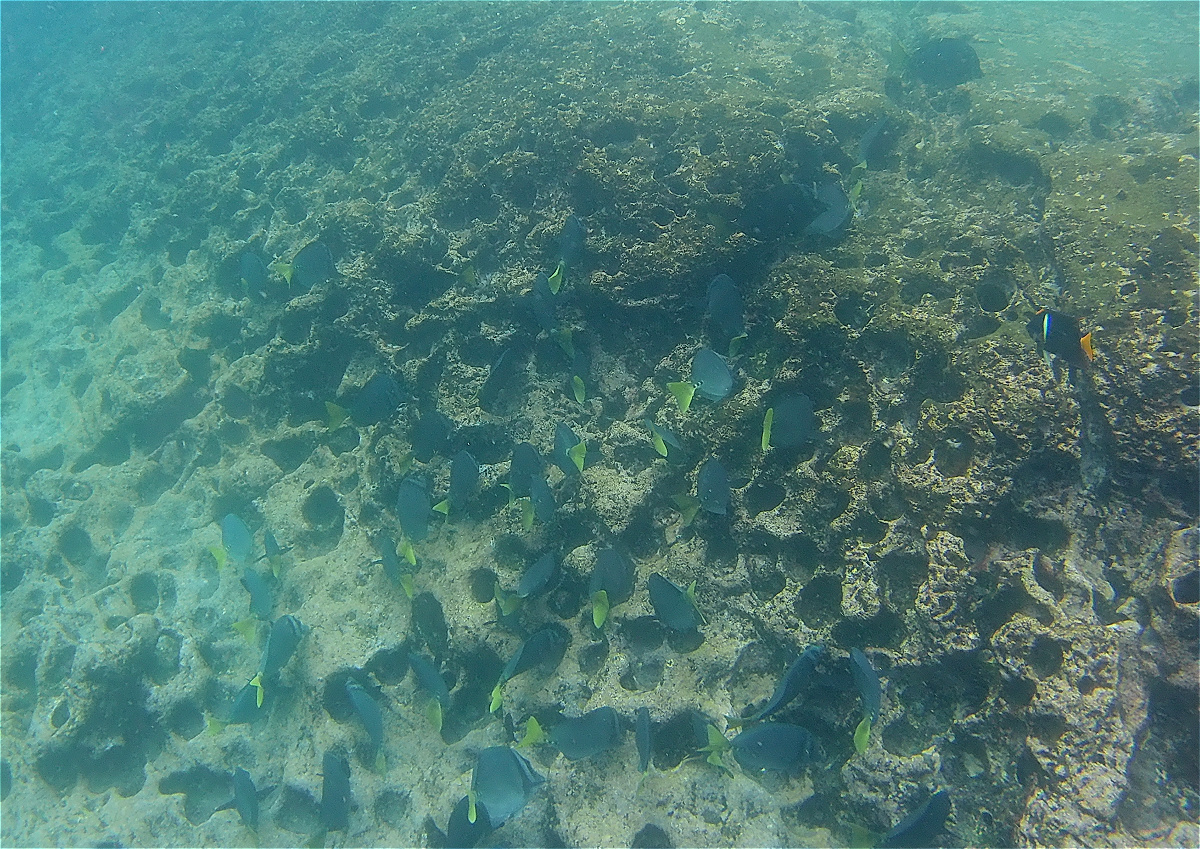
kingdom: Animalia
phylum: Chordata
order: Perciformes
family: Acanthuridae
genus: Prionurus
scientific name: Prionurus laticlavius
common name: Razor surgeonfish
